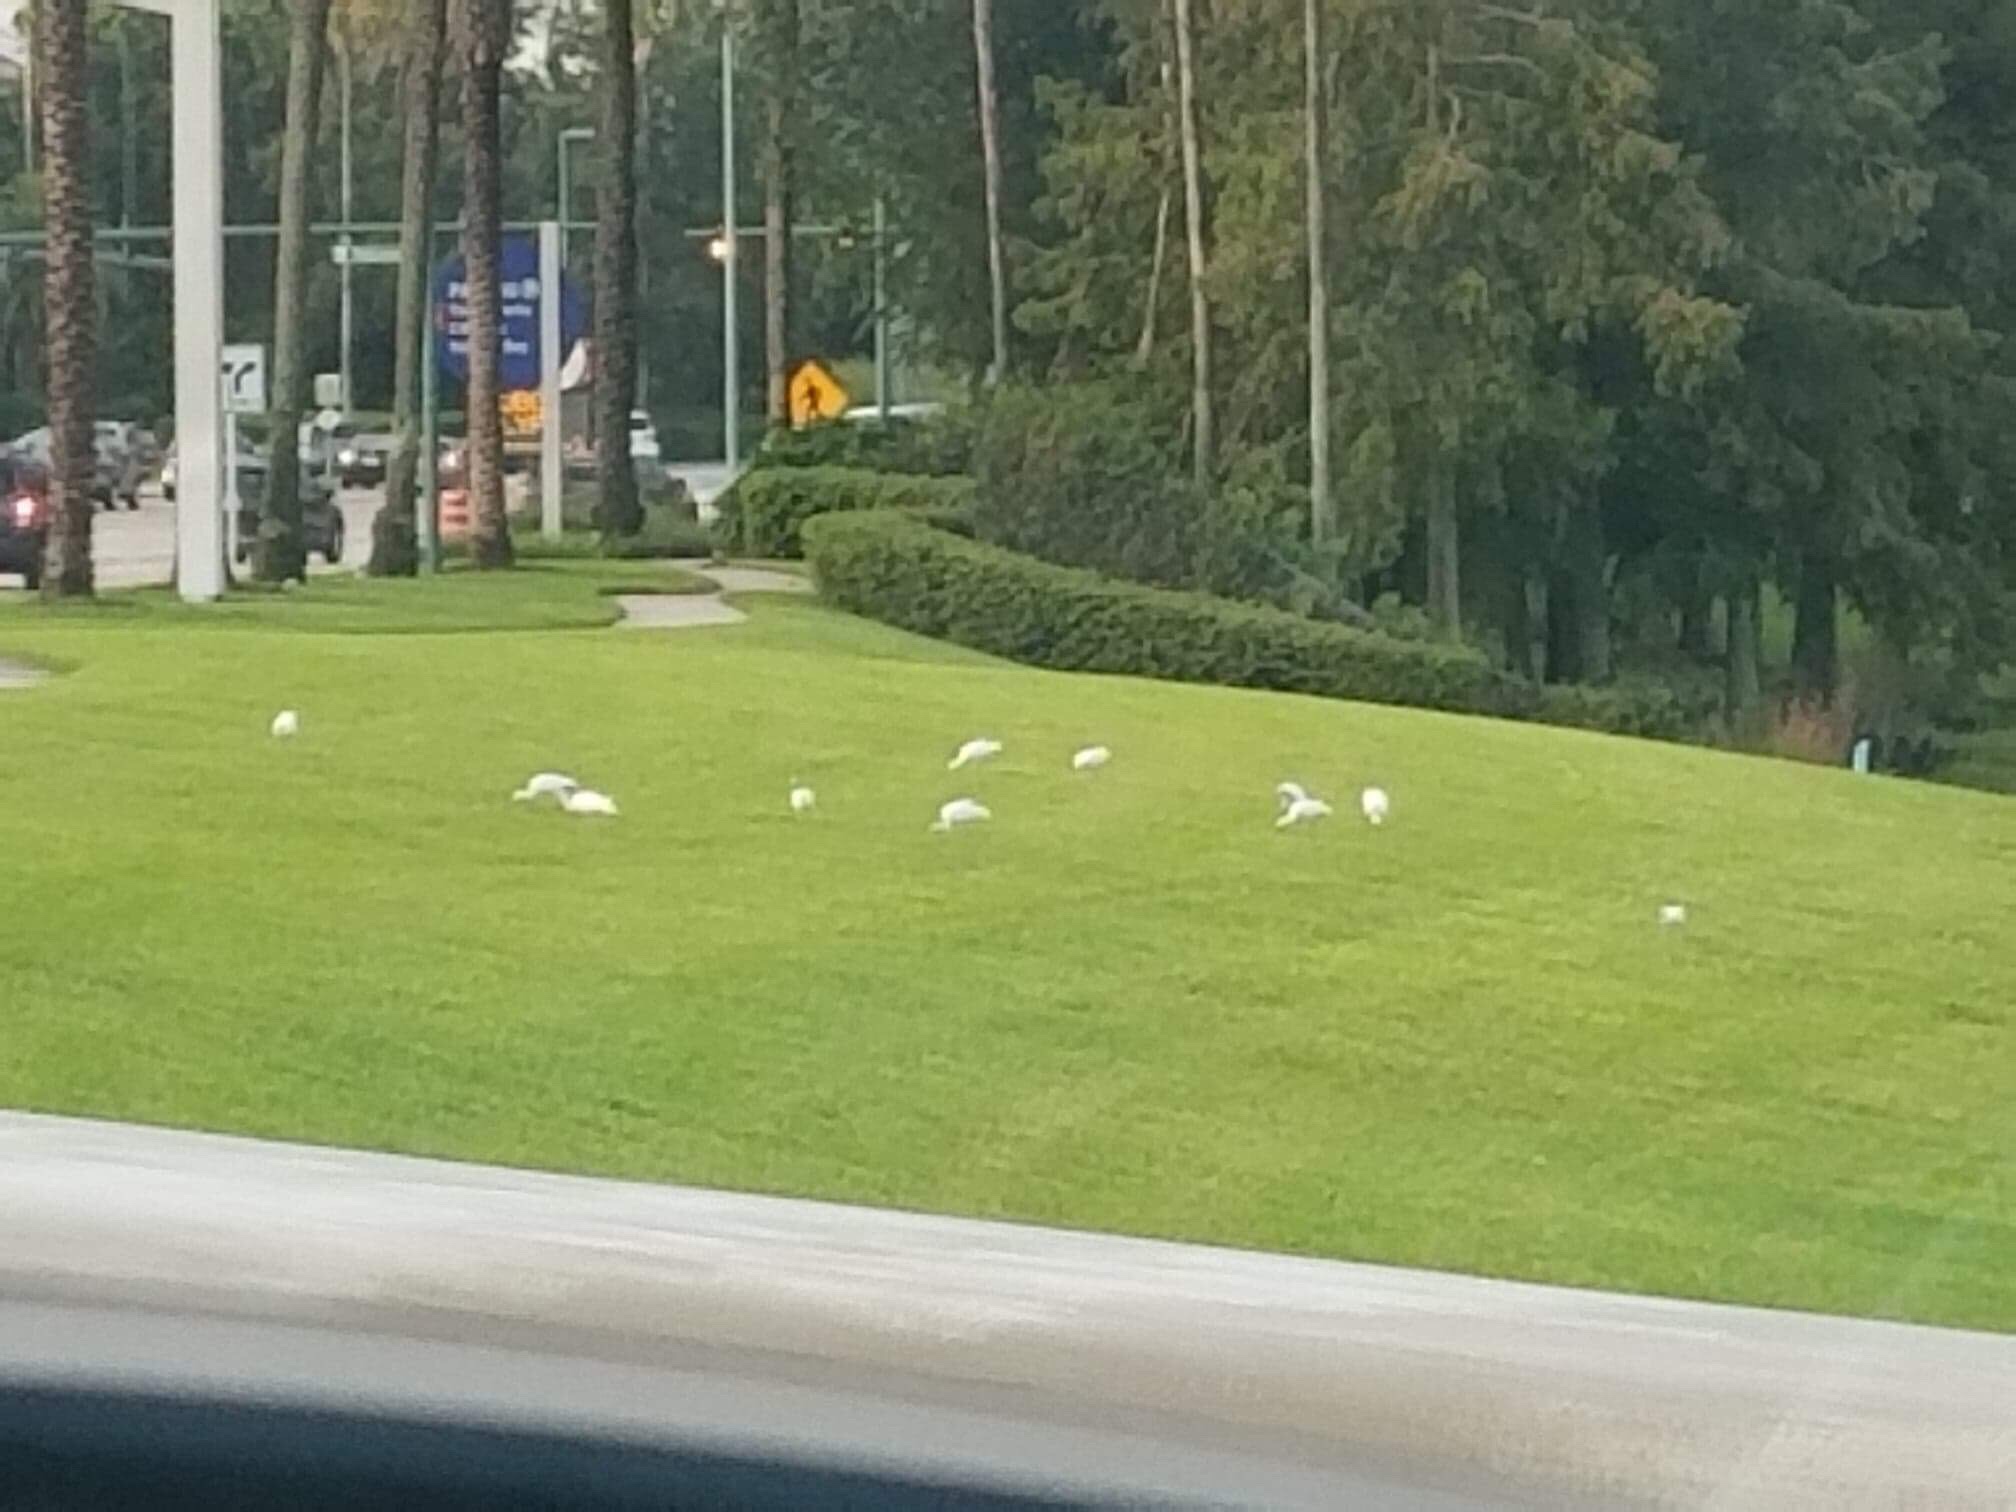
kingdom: Animalia
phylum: Chordata
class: Aves
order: Pelecaniformes
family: Threskiornithidae
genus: Eudocimus
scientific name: Eudocimus albus
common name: White ibis
